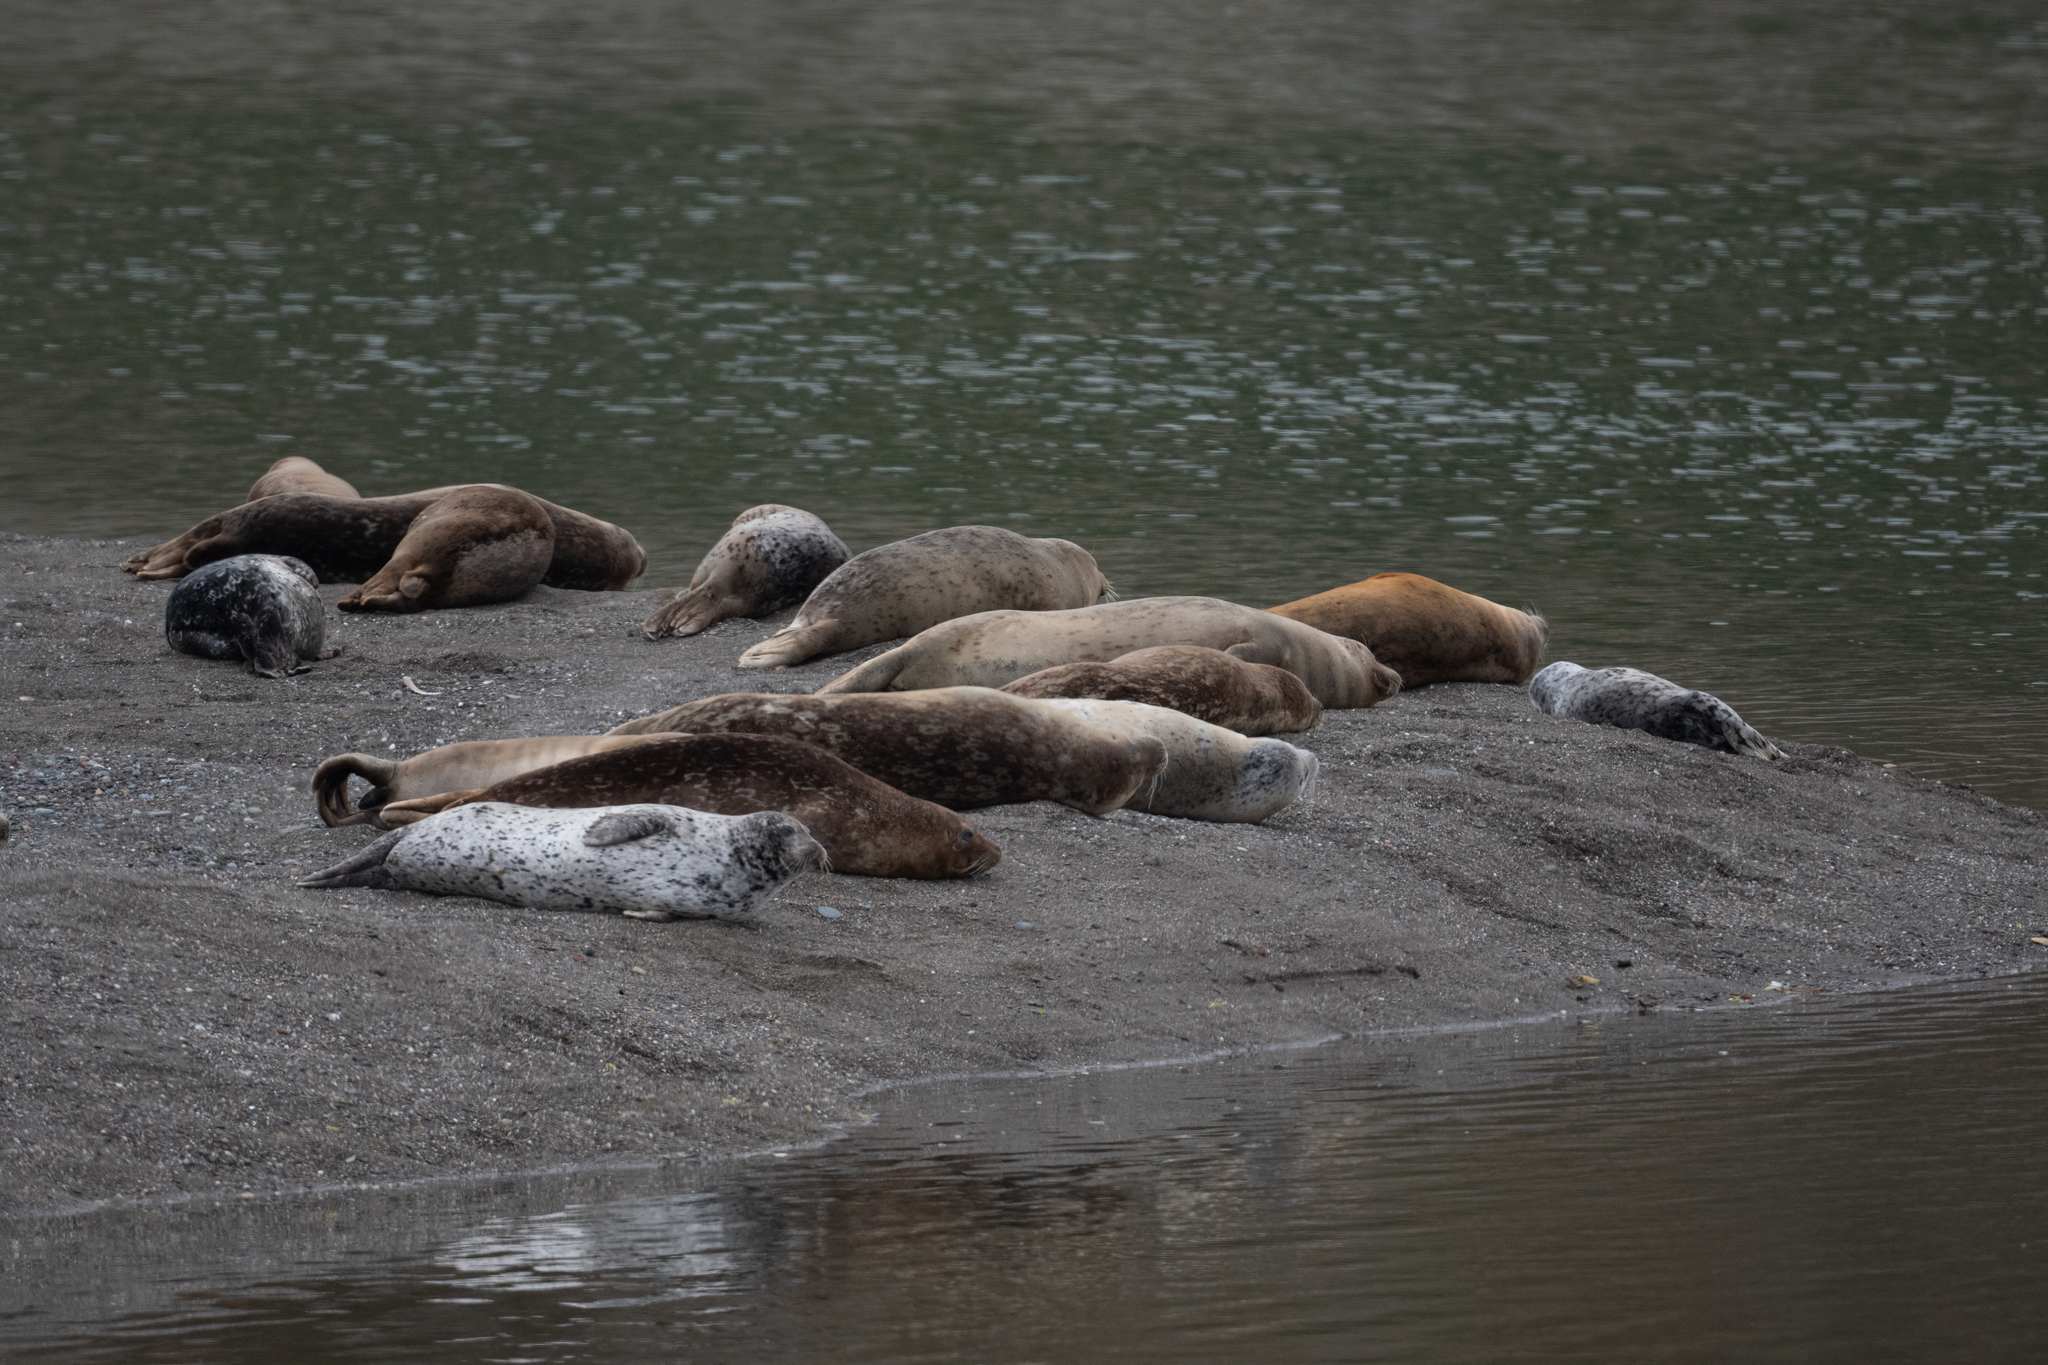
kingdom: Animalia
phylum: Chordata
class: Mammalia
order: Carnivora
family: Phocidae
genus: Phoca
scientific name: Phoca vitulina
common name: Harbor seal
